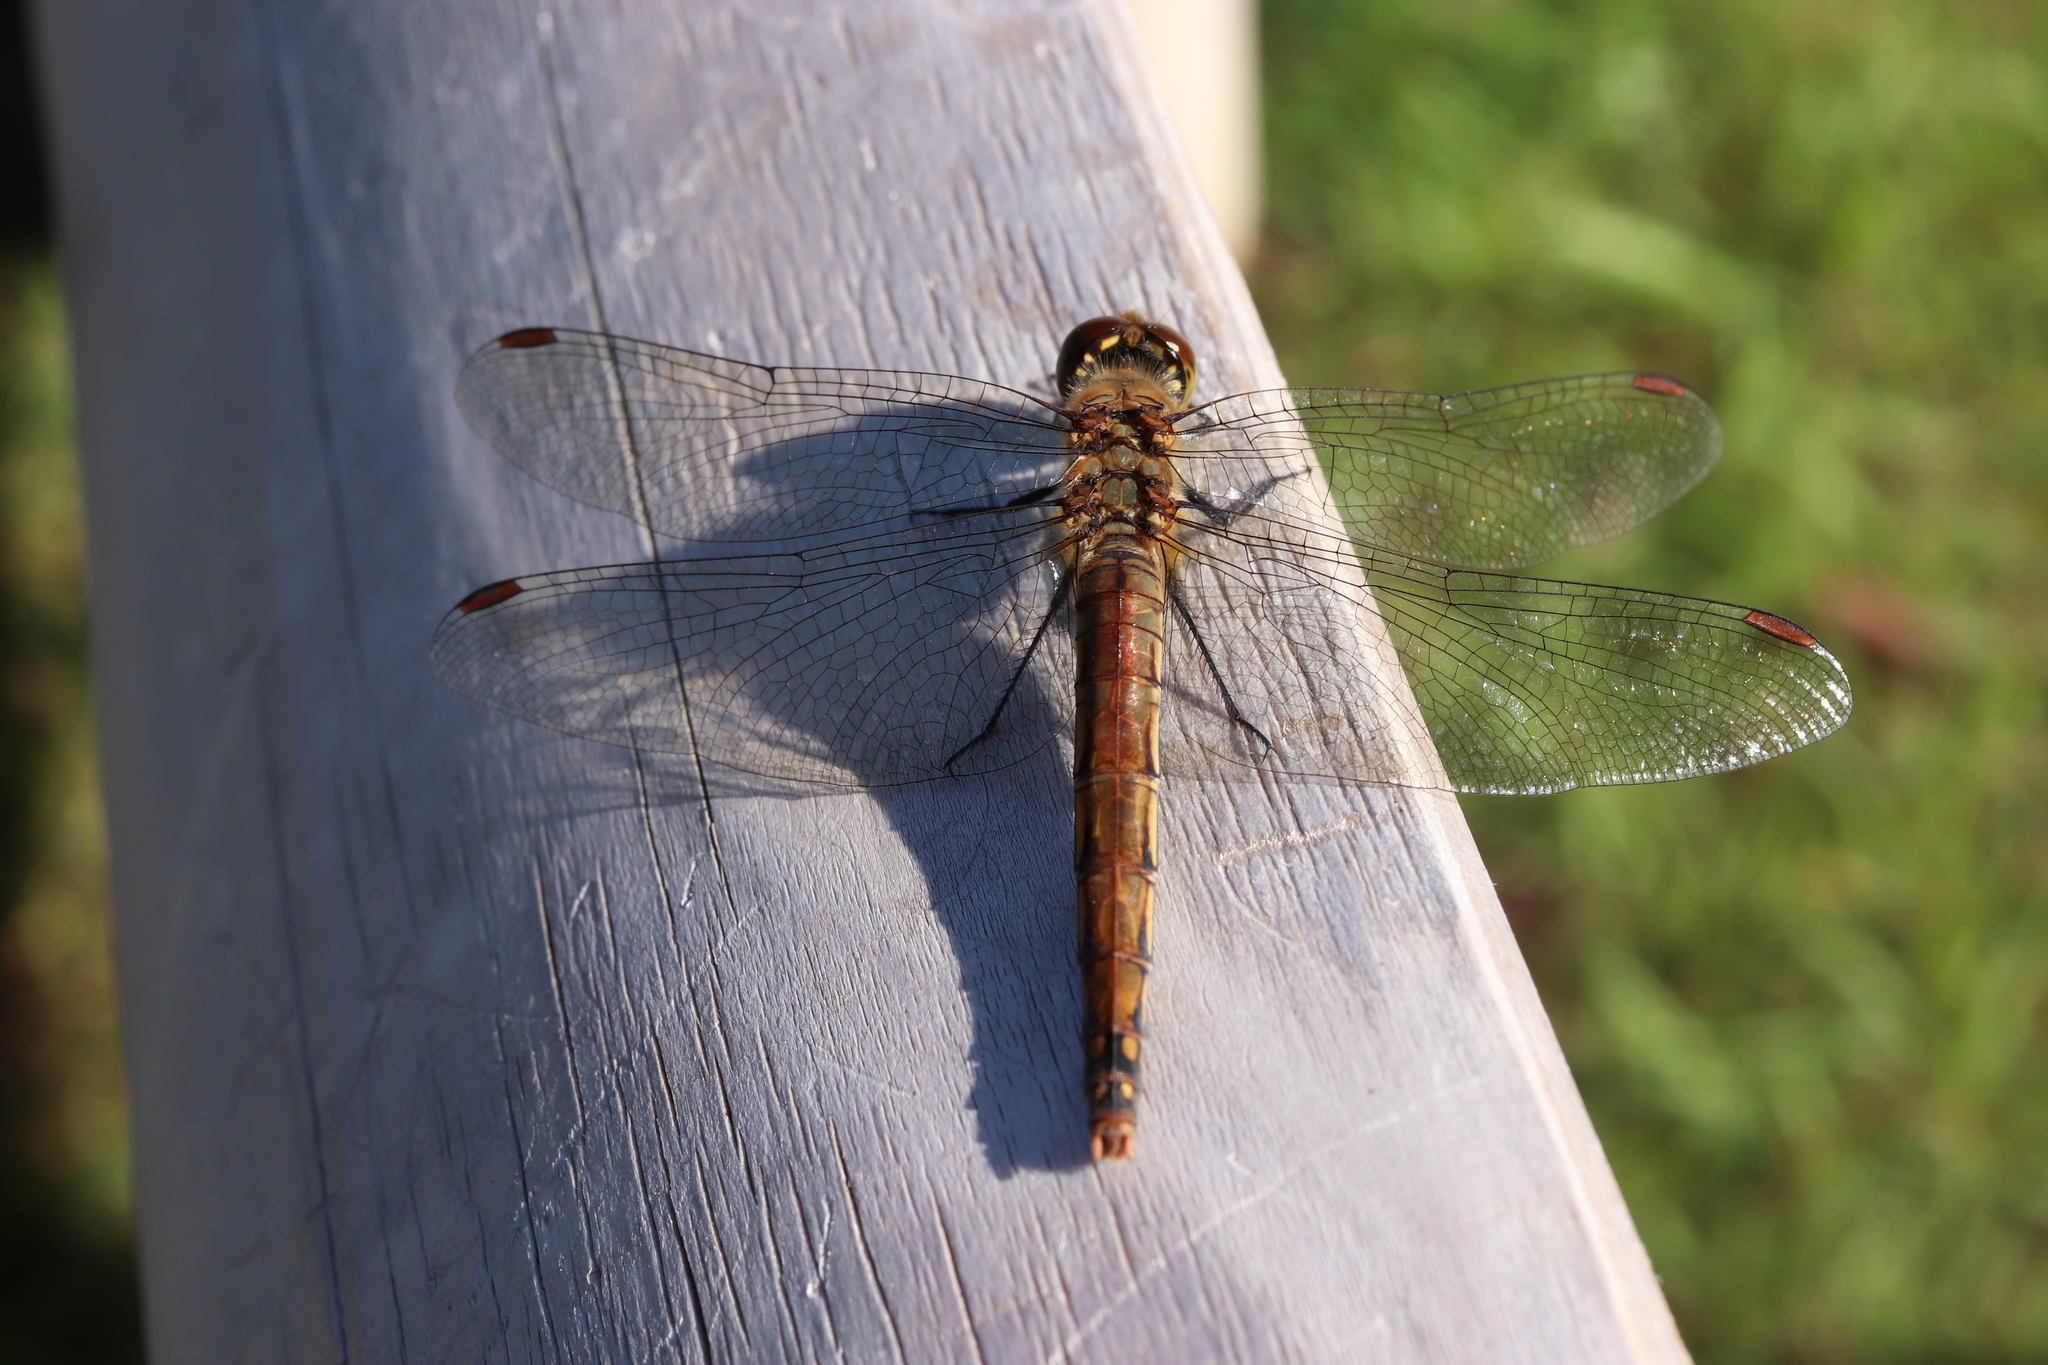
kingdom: Animalia
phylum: Arthropoda
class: Insecta
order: Odonata
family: Libellulidae
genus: Sympetrum
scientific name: Sympetrum frequens
